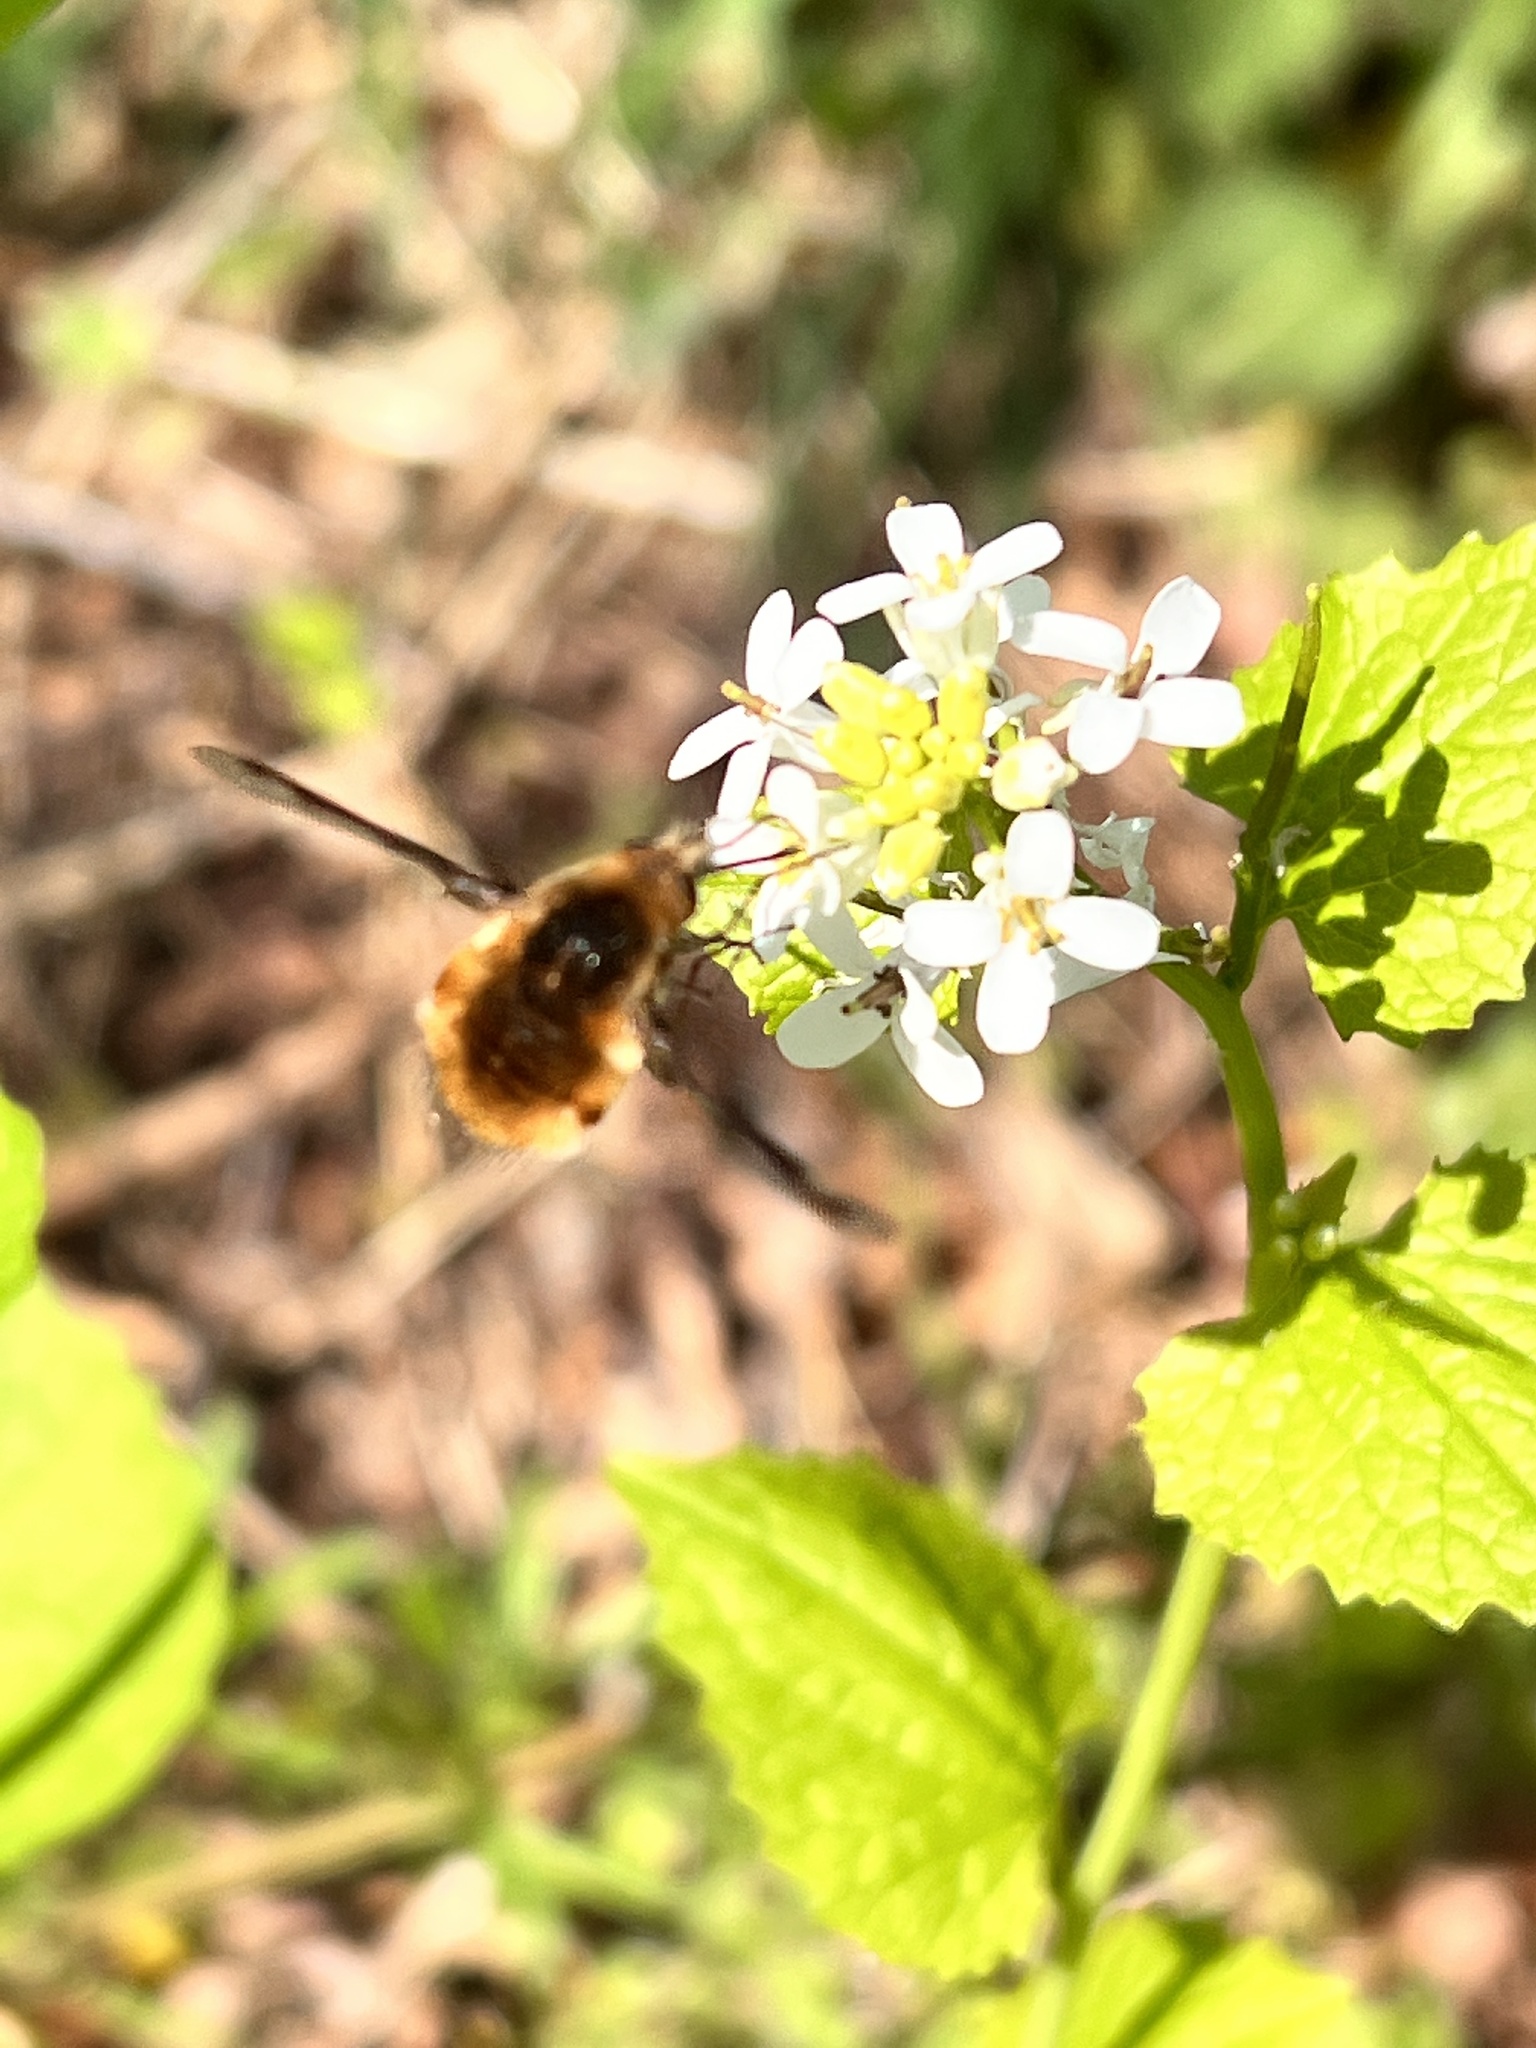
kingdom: Animalia
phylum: Arthropoda
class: Insecta
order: Diptera
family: Bombyliidae
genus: Bombylius
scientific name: Bombylius major
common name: Bee fly
